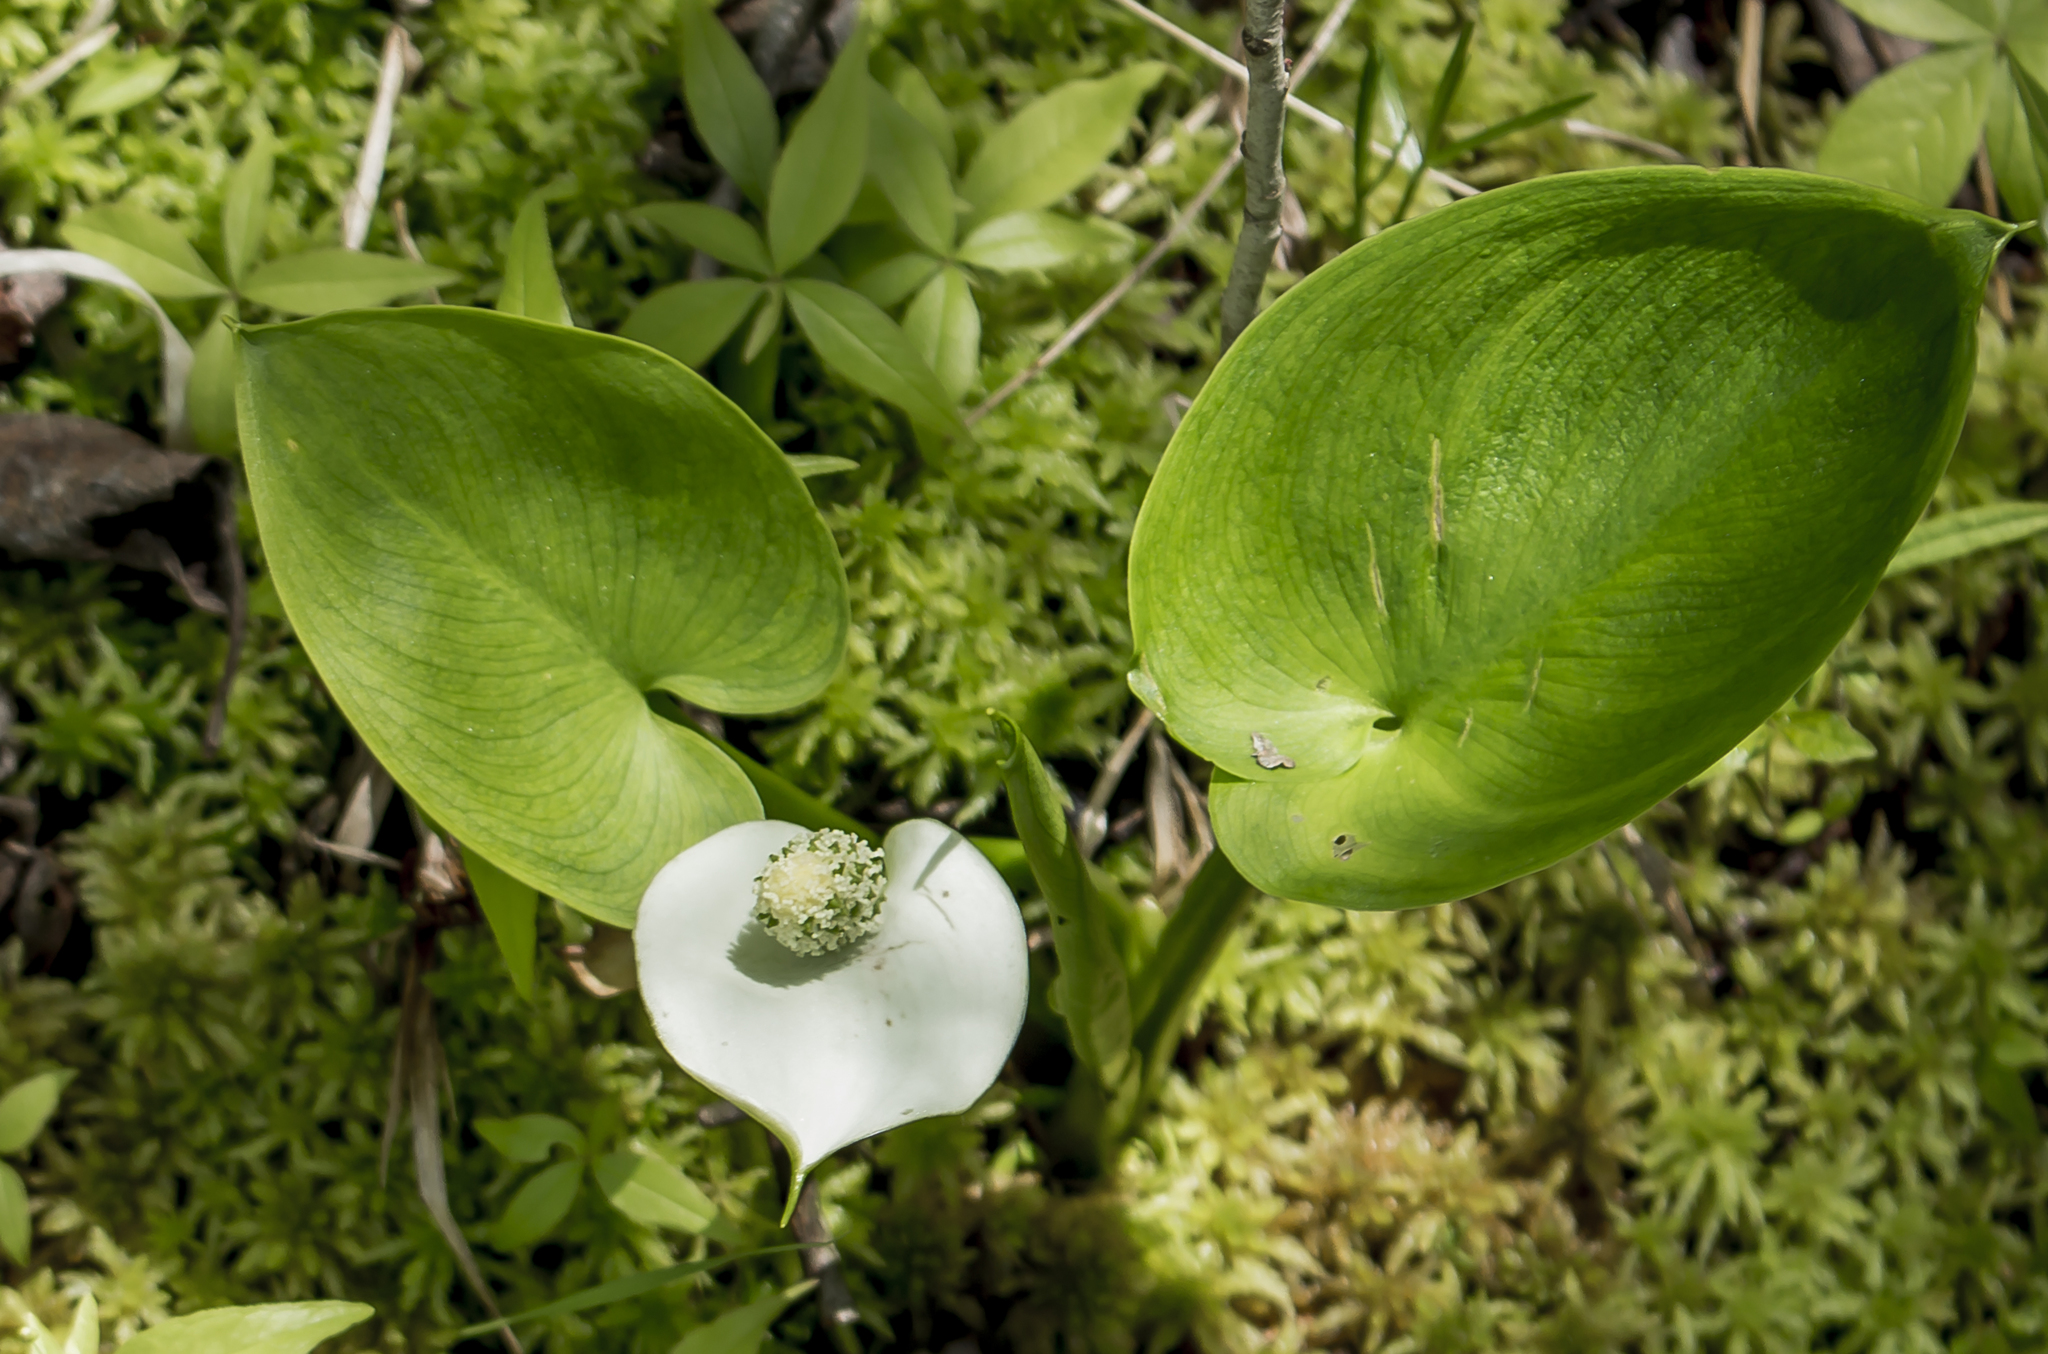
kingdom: Plantae
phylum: Tracheophyta
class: Liliopsida
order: Alismatales
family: Araceae
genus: Calla
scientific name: Calla palustris
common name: Bog arum
